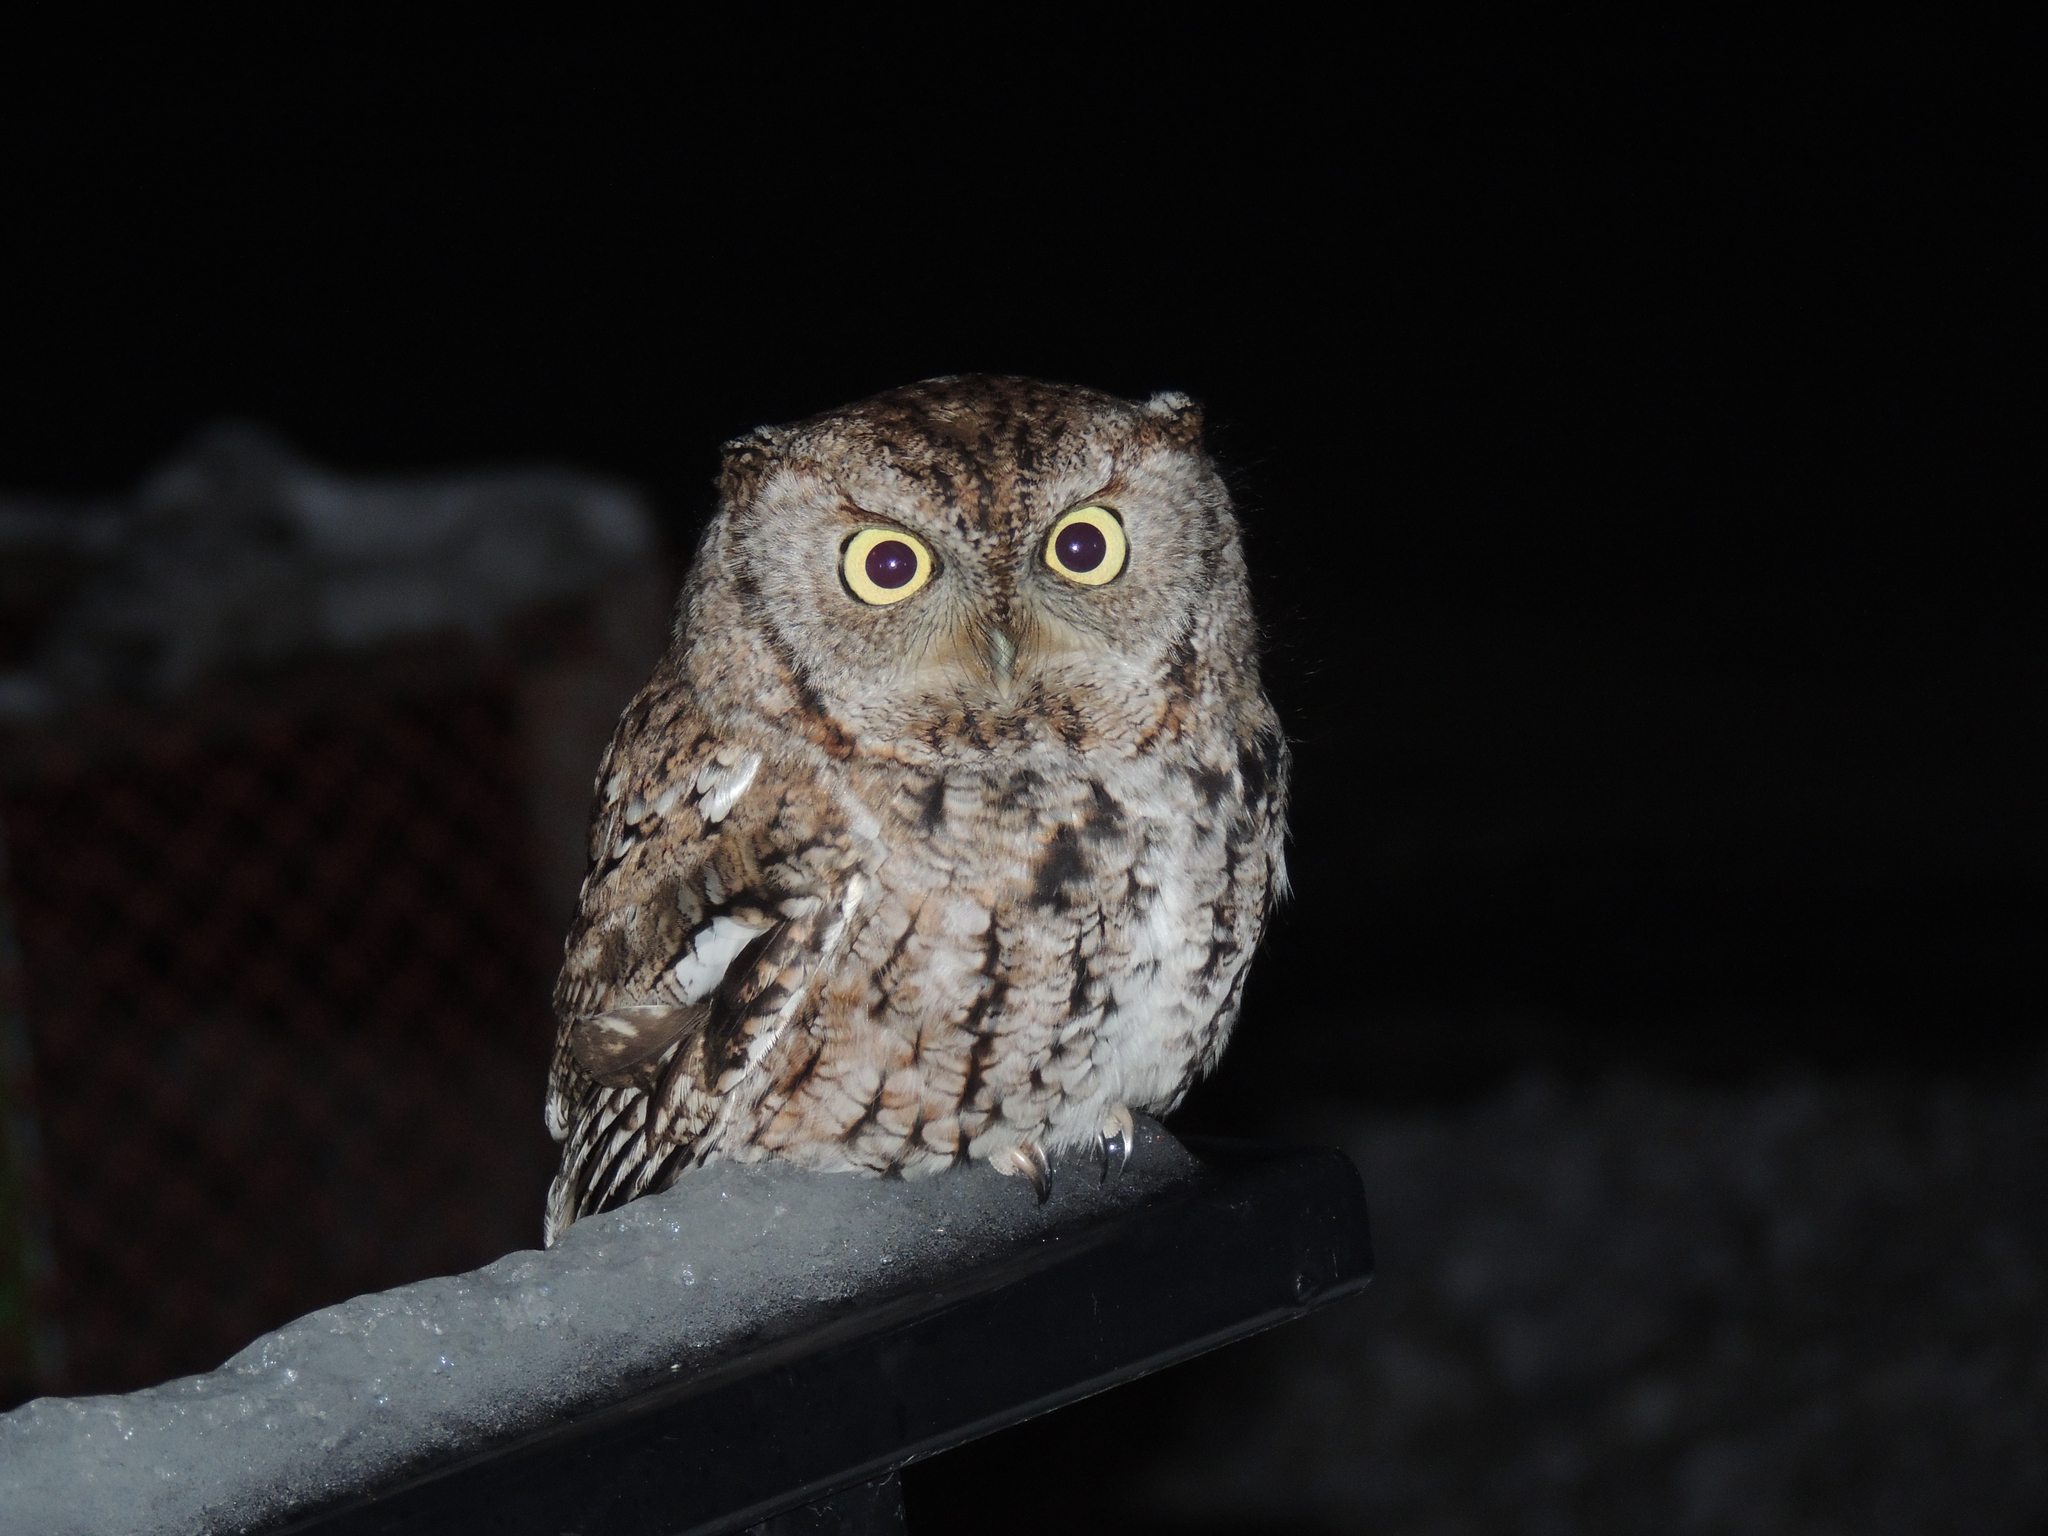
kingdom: Animalia
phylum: Chordata
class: Aves
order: Strigiformes
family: Strigidae
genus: Megascops
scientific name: Megascops asio
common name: Eastern screech-owl
